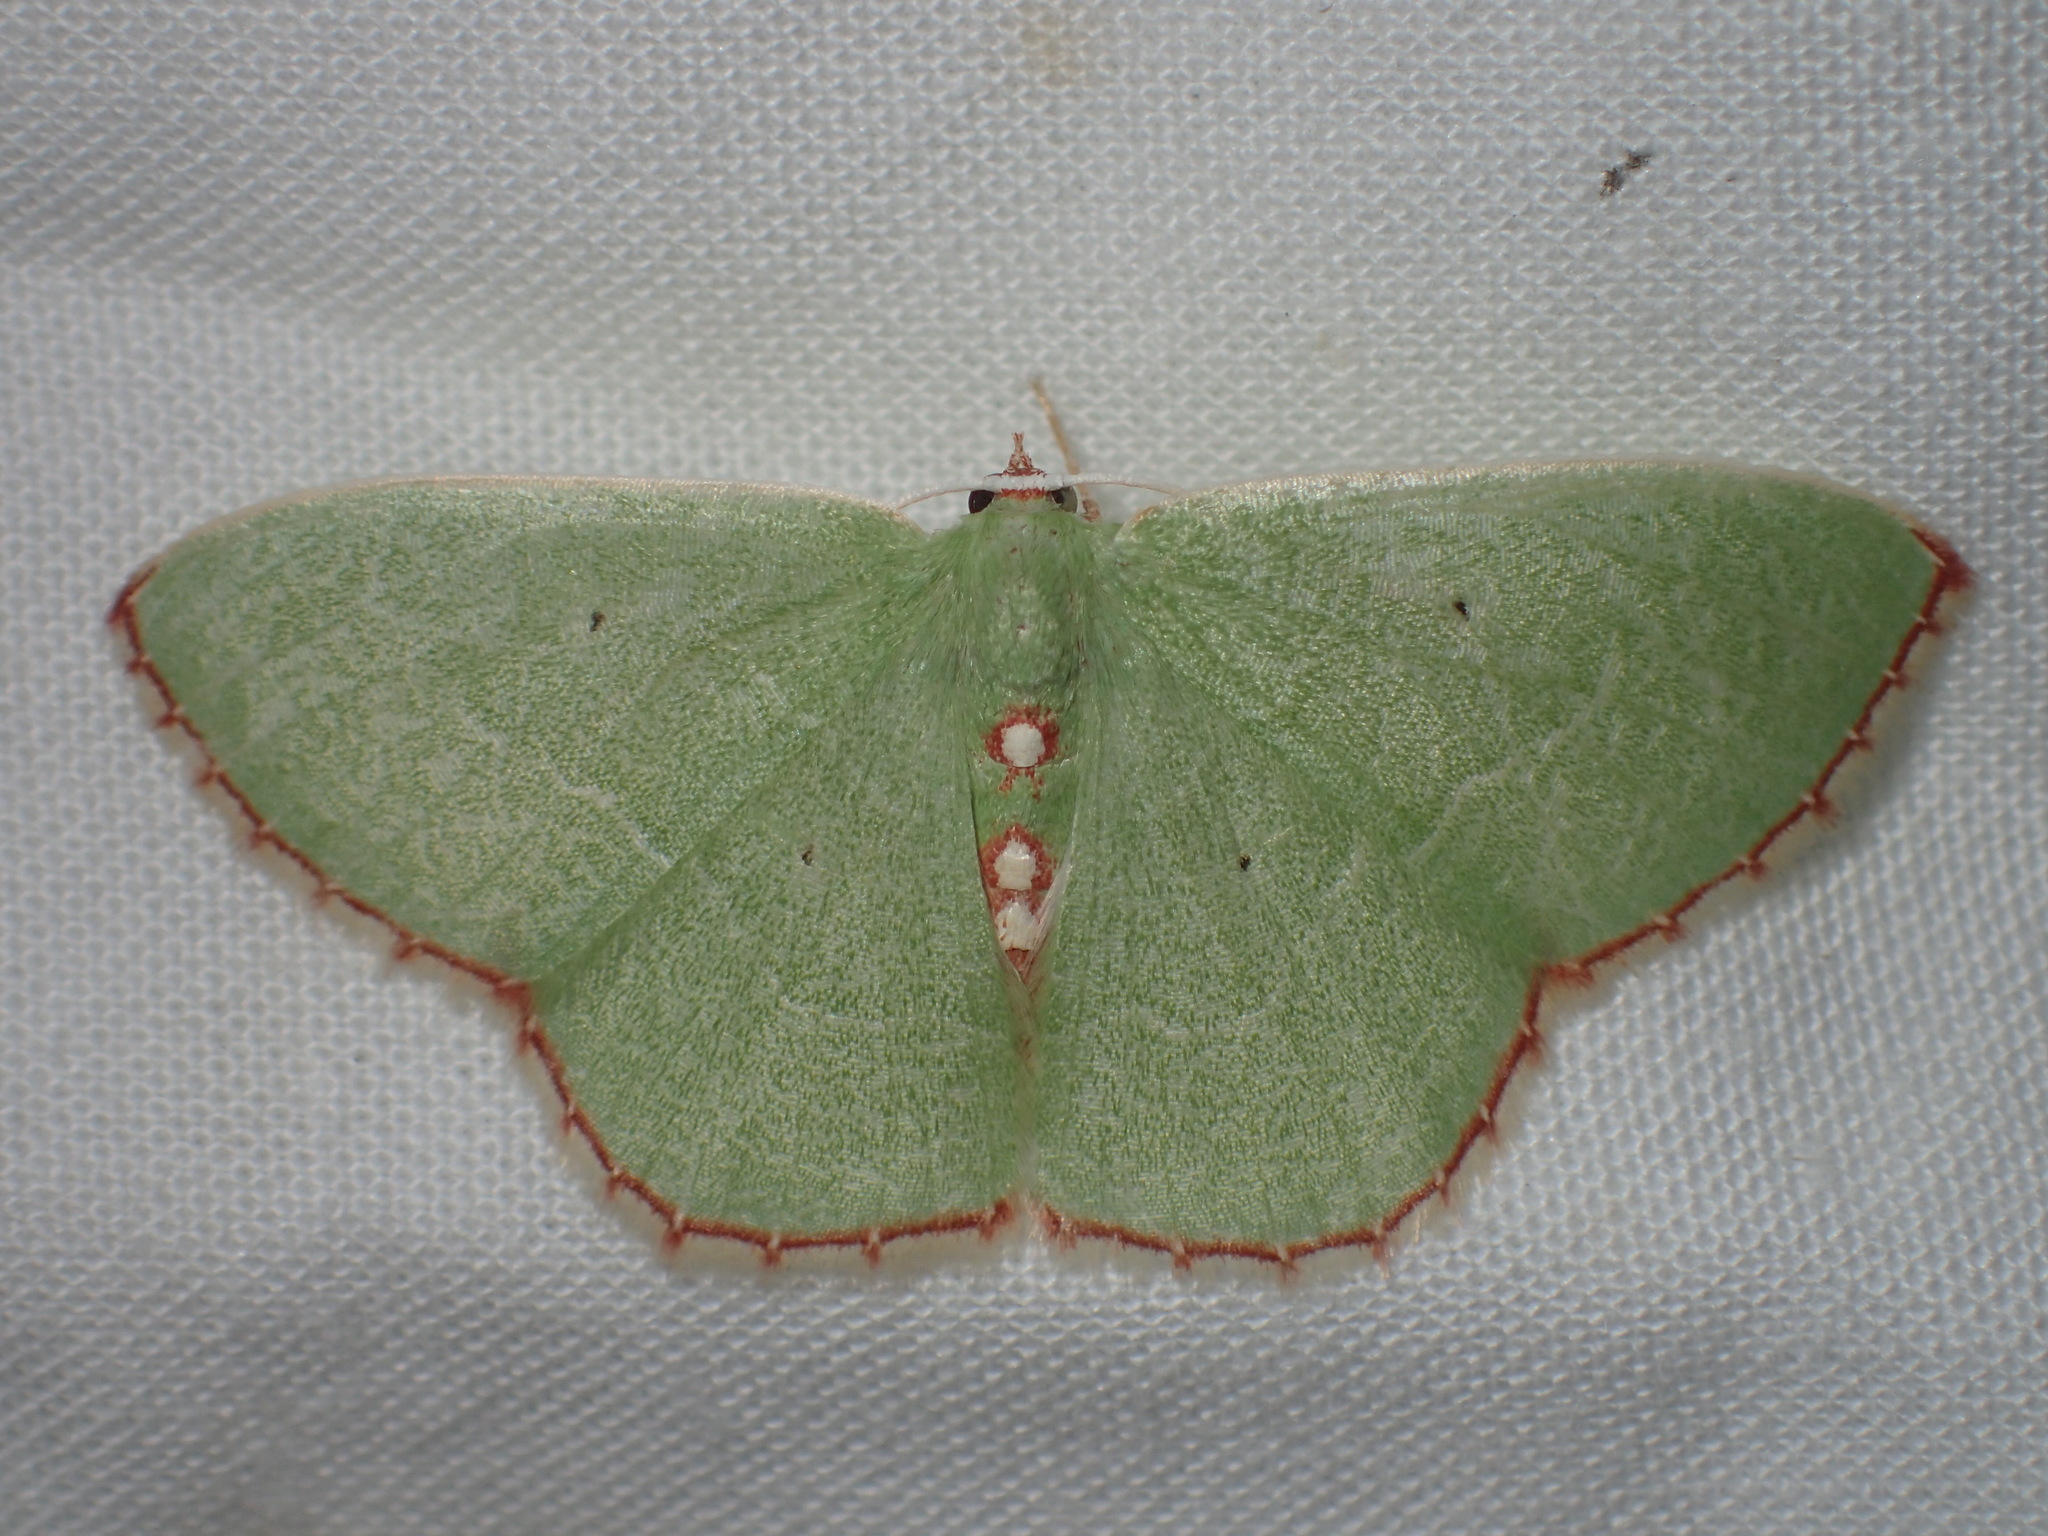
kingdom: Animalia
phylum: Arthropoda
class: Insecta
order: Lepidoptera
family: Geometridae
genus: Nemoria
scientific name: Nemoria lixaria
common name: Red-bordered emerald
